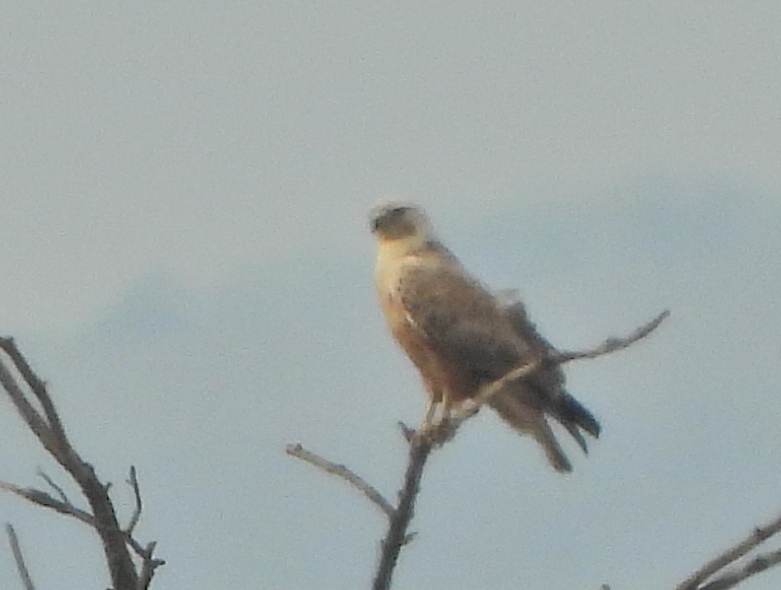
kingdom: Animalia
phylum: Chordata
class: Aves
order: Accipitriformes
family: Accipitridae
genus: Buteo
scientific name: Buteo rufinus
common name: Long-legged buzzard
